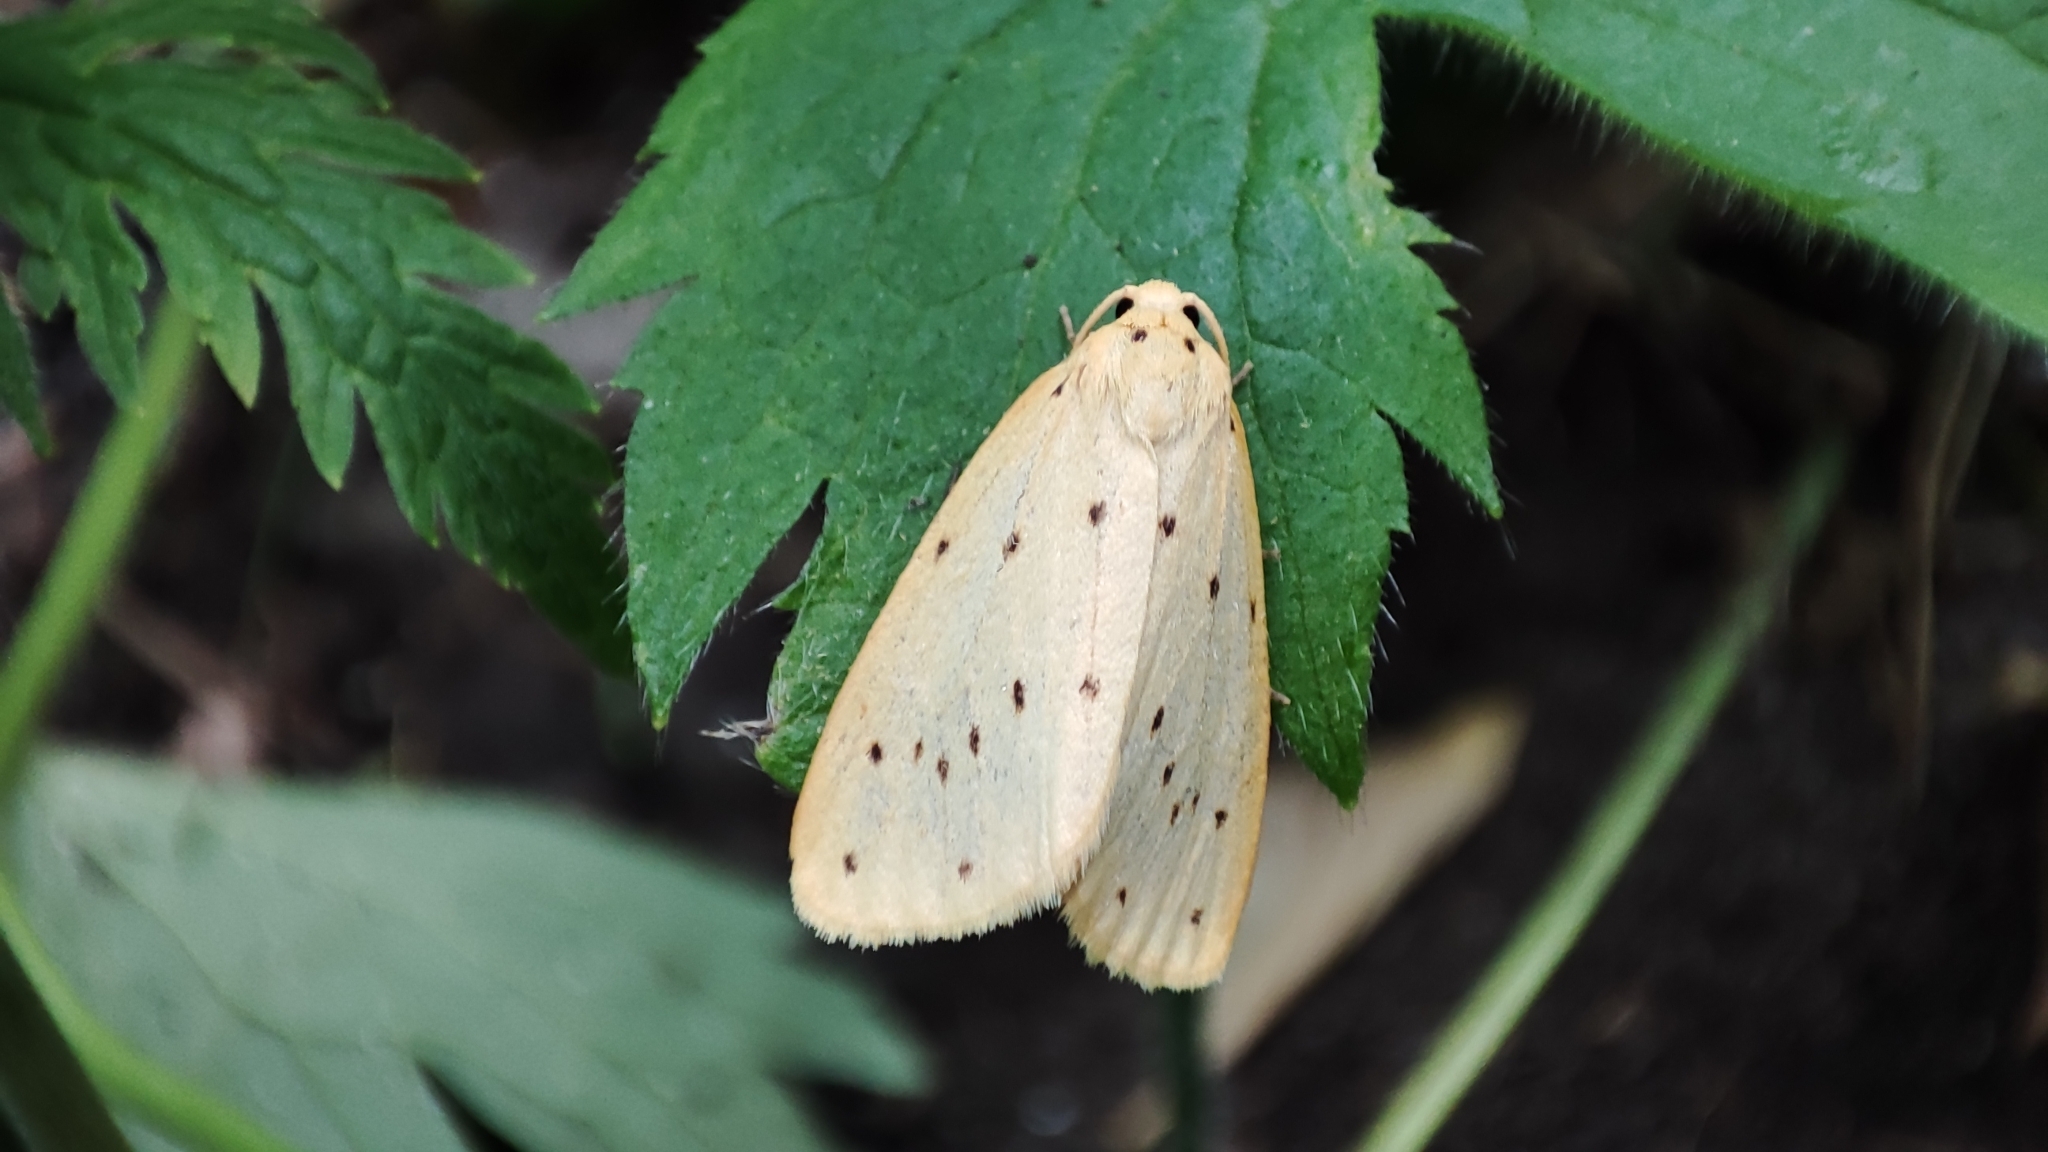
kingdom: Animalia
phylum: Arthropoda
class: Insecta
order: Lepidoptera
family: Erebidae
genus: Stigmatophora
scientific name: Stigmatophora flava
